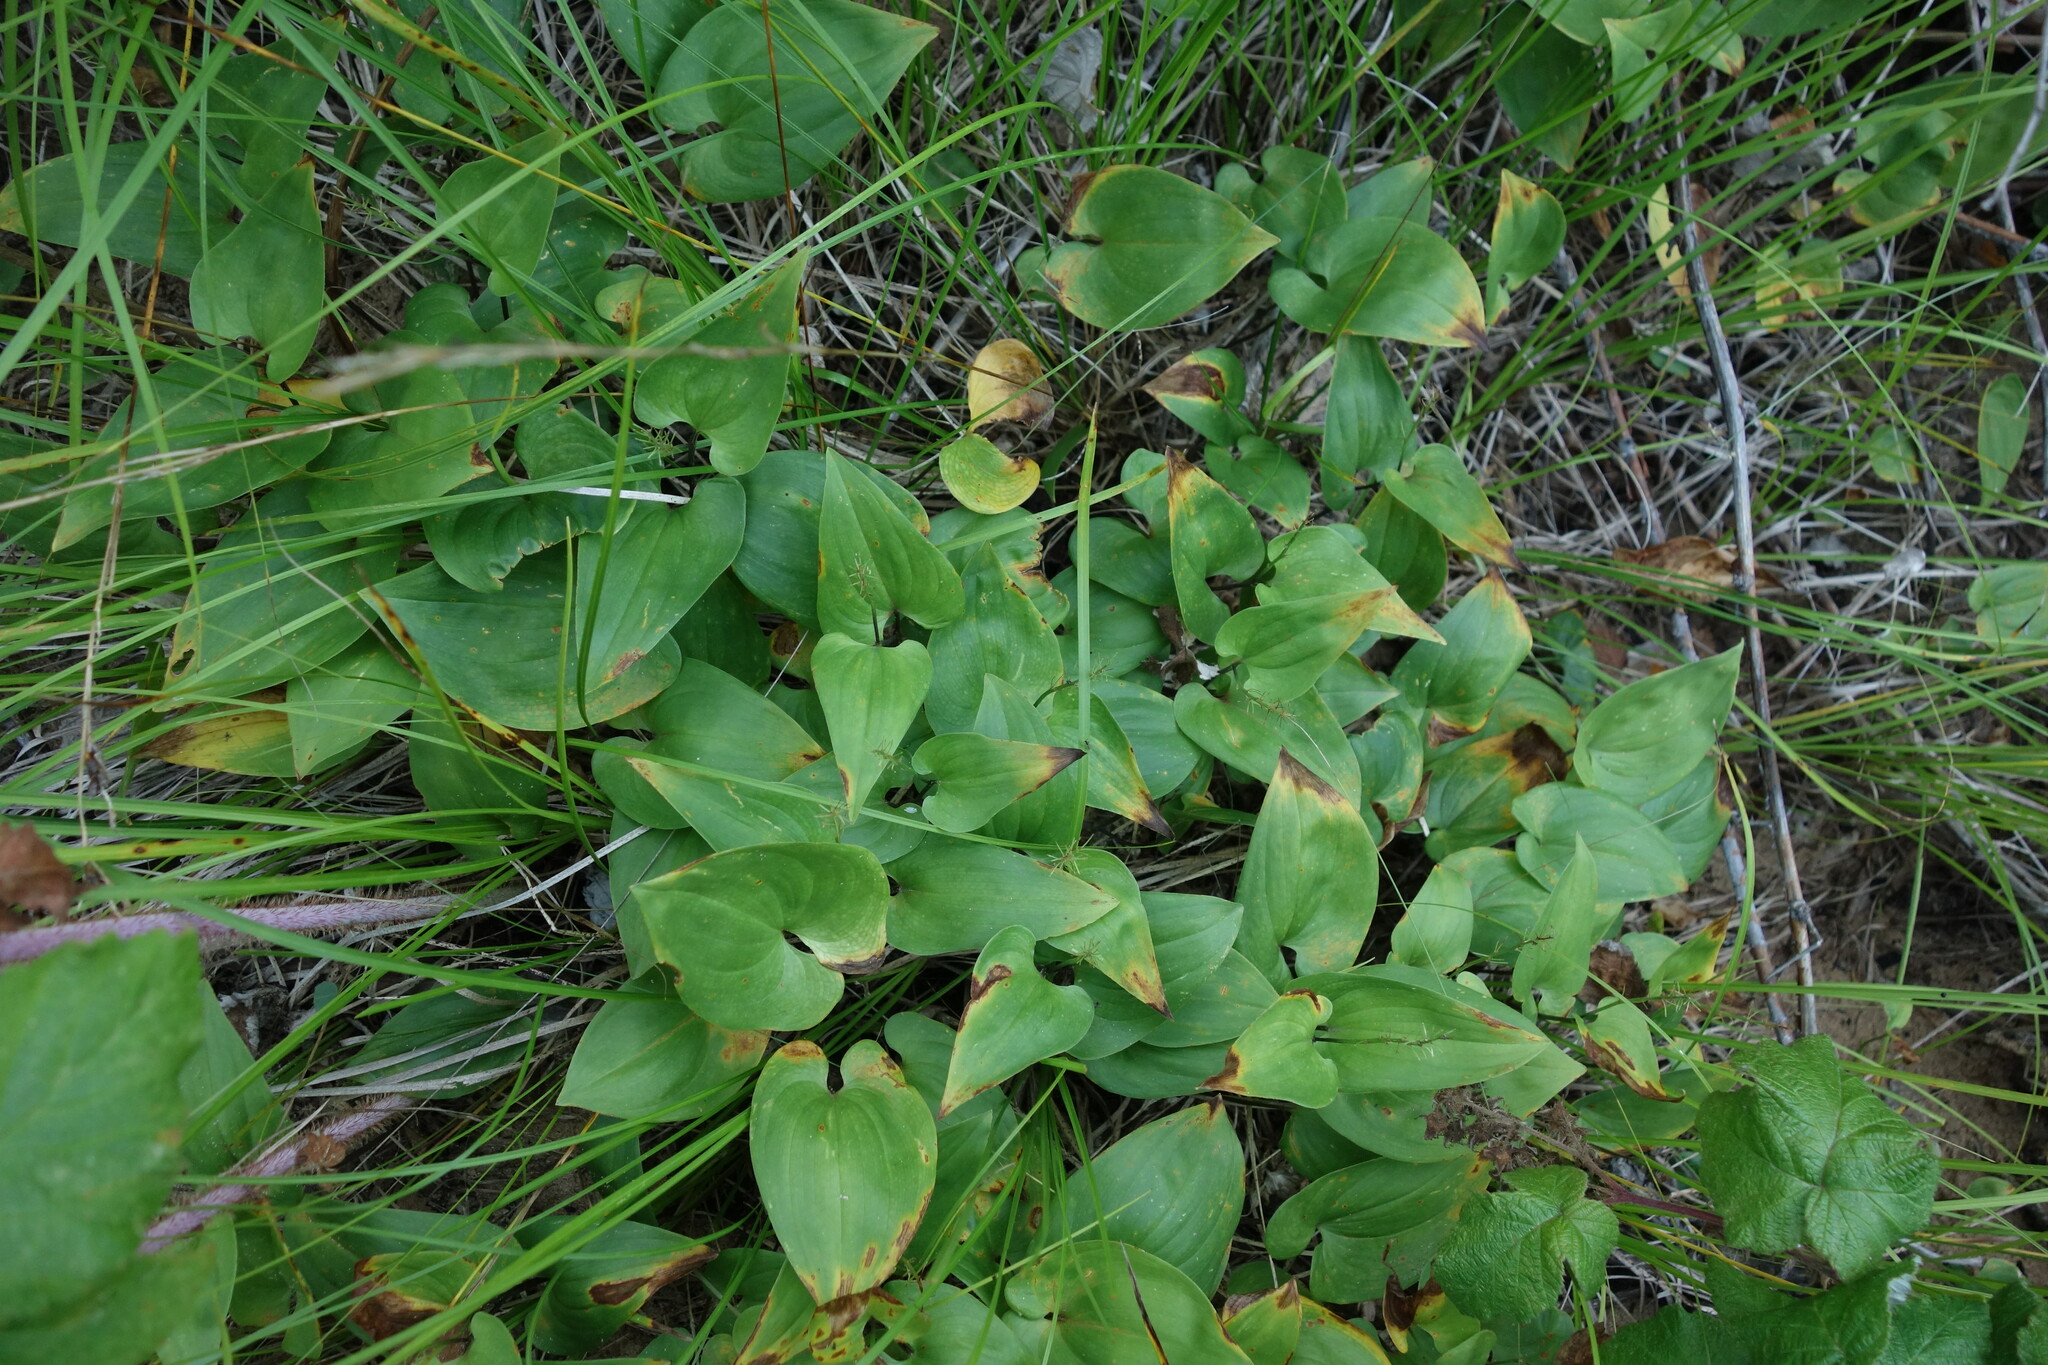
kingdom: Plantae
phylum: Tracheophyta
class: Liliopsida
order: Asparagales
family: Asparagaceae
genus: Maianthemum
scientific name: Maianthemum bifolium
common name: May lily
